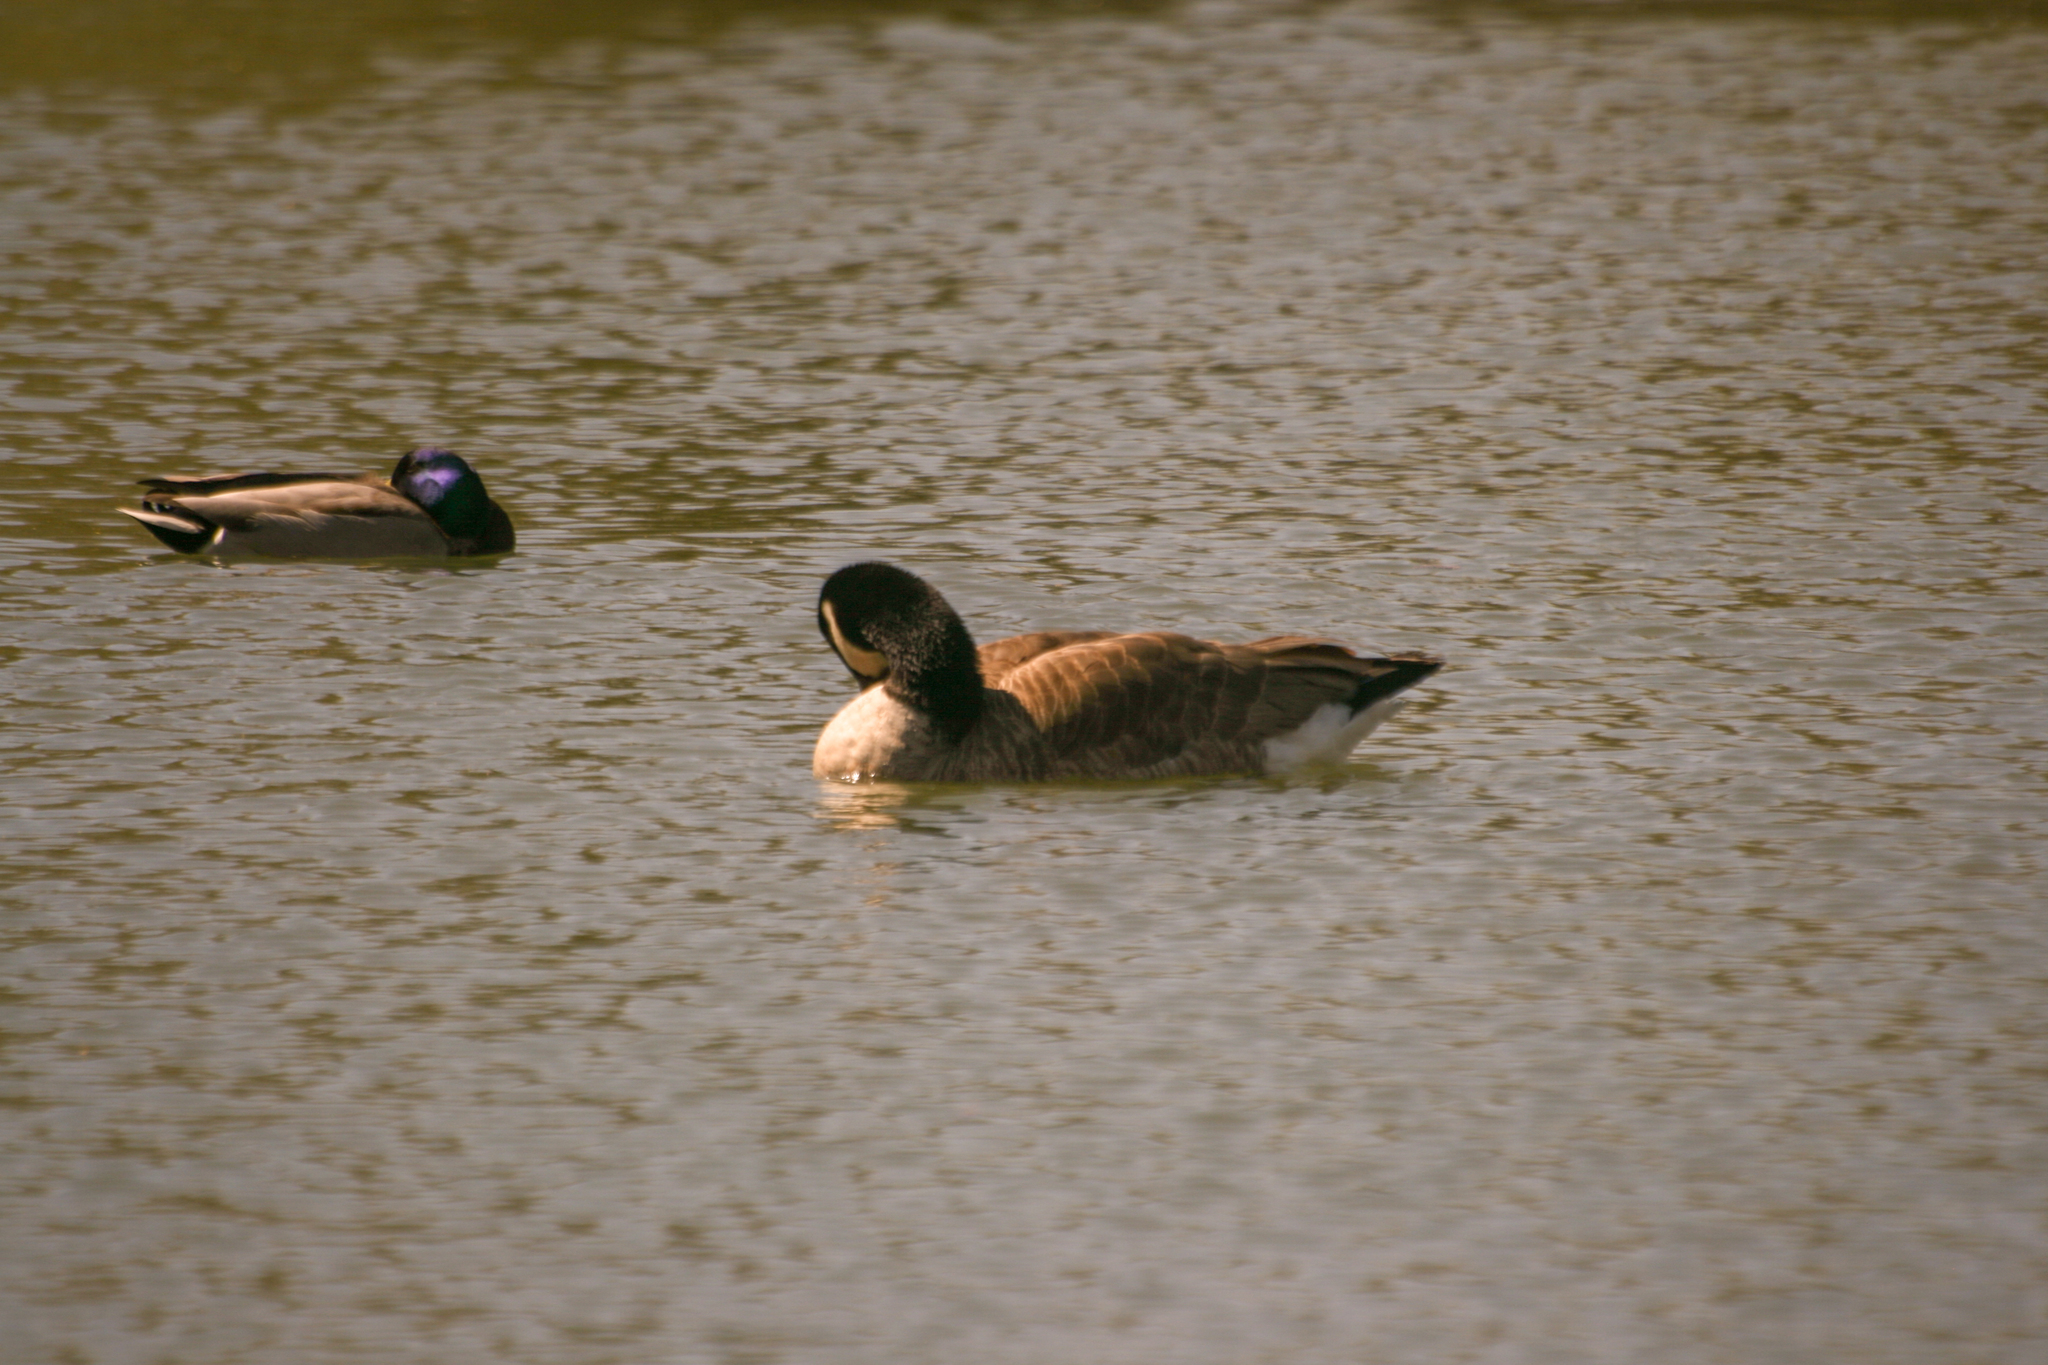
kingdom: Animalia
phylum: Chordata
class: Aves
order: Anseriformes
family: Anatidae
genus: Branta
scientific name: Branta canadensis
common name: Canada goose
